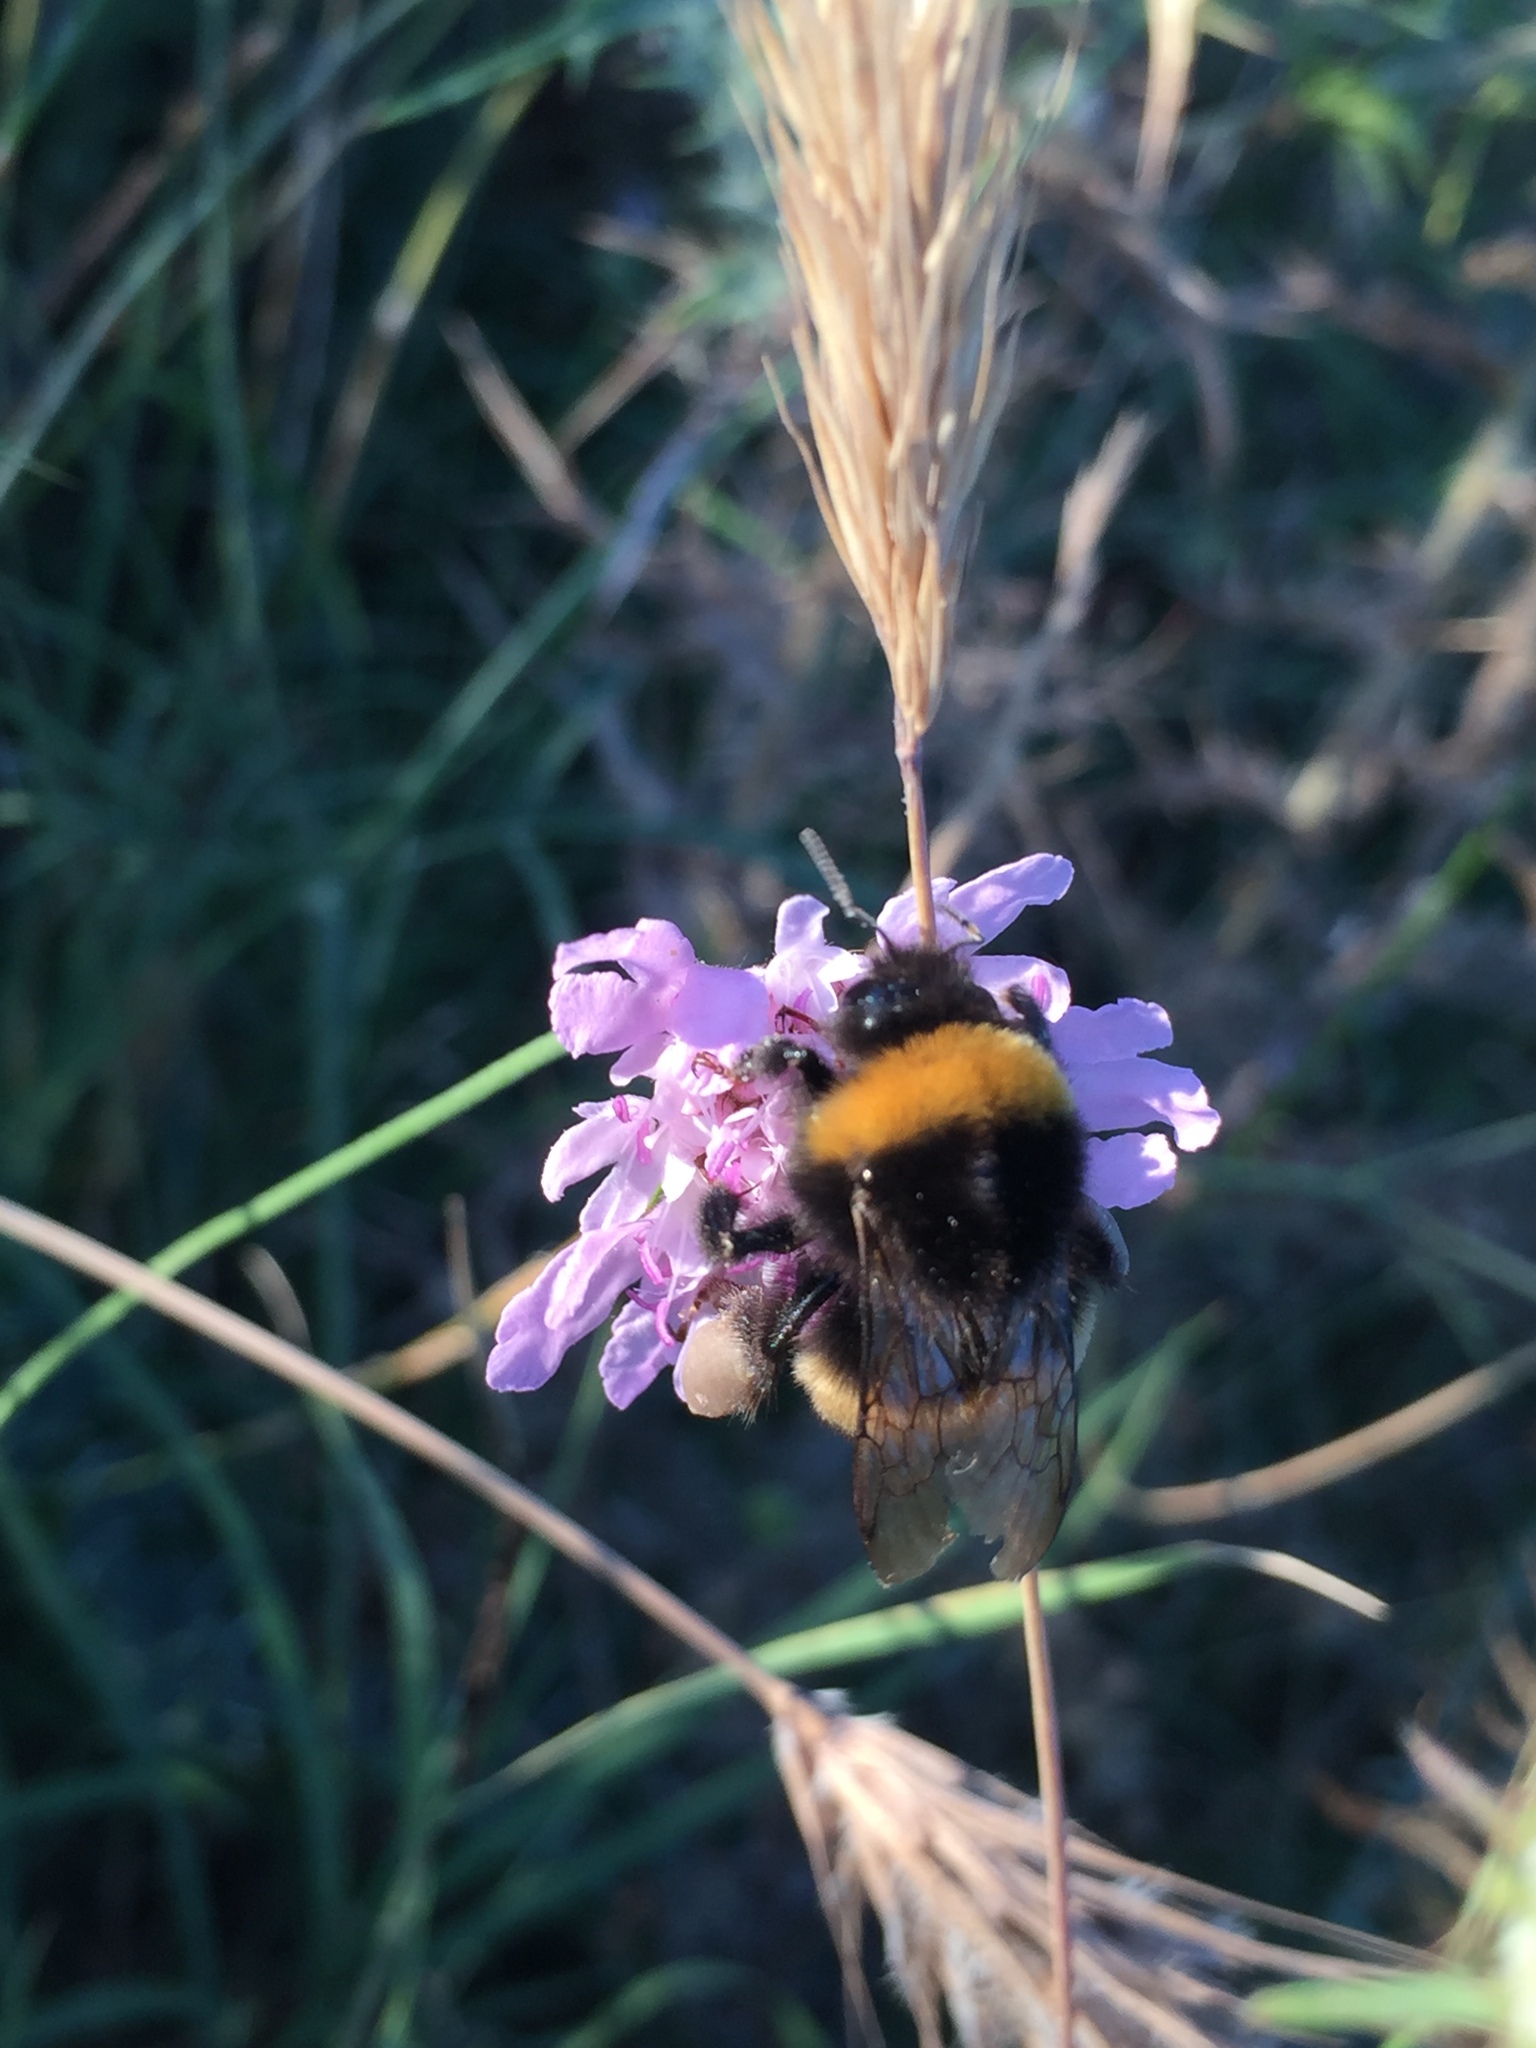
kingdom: Animalia
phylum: Arthropoda
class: Insecta
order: Hymenoptera
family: Apidae
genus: Bombus
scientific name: Bombus terrestris
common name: Buff-tailed bumblebee
